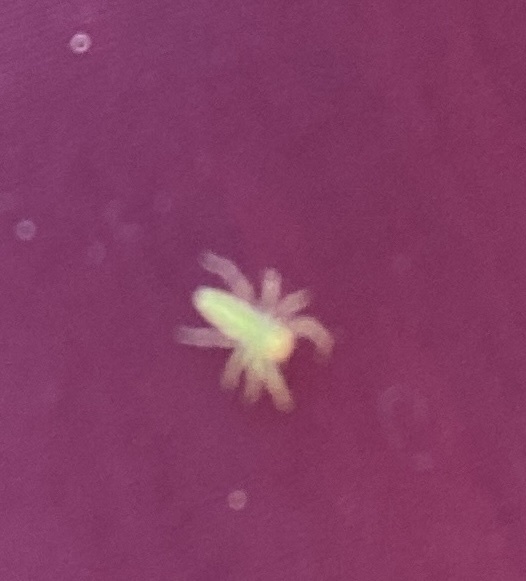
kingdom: Animalia
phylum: Arthropoda
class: Arachnida
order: Araneae
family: Salticidae
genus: Lyssomanes
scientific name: Lyssomanes viridis
